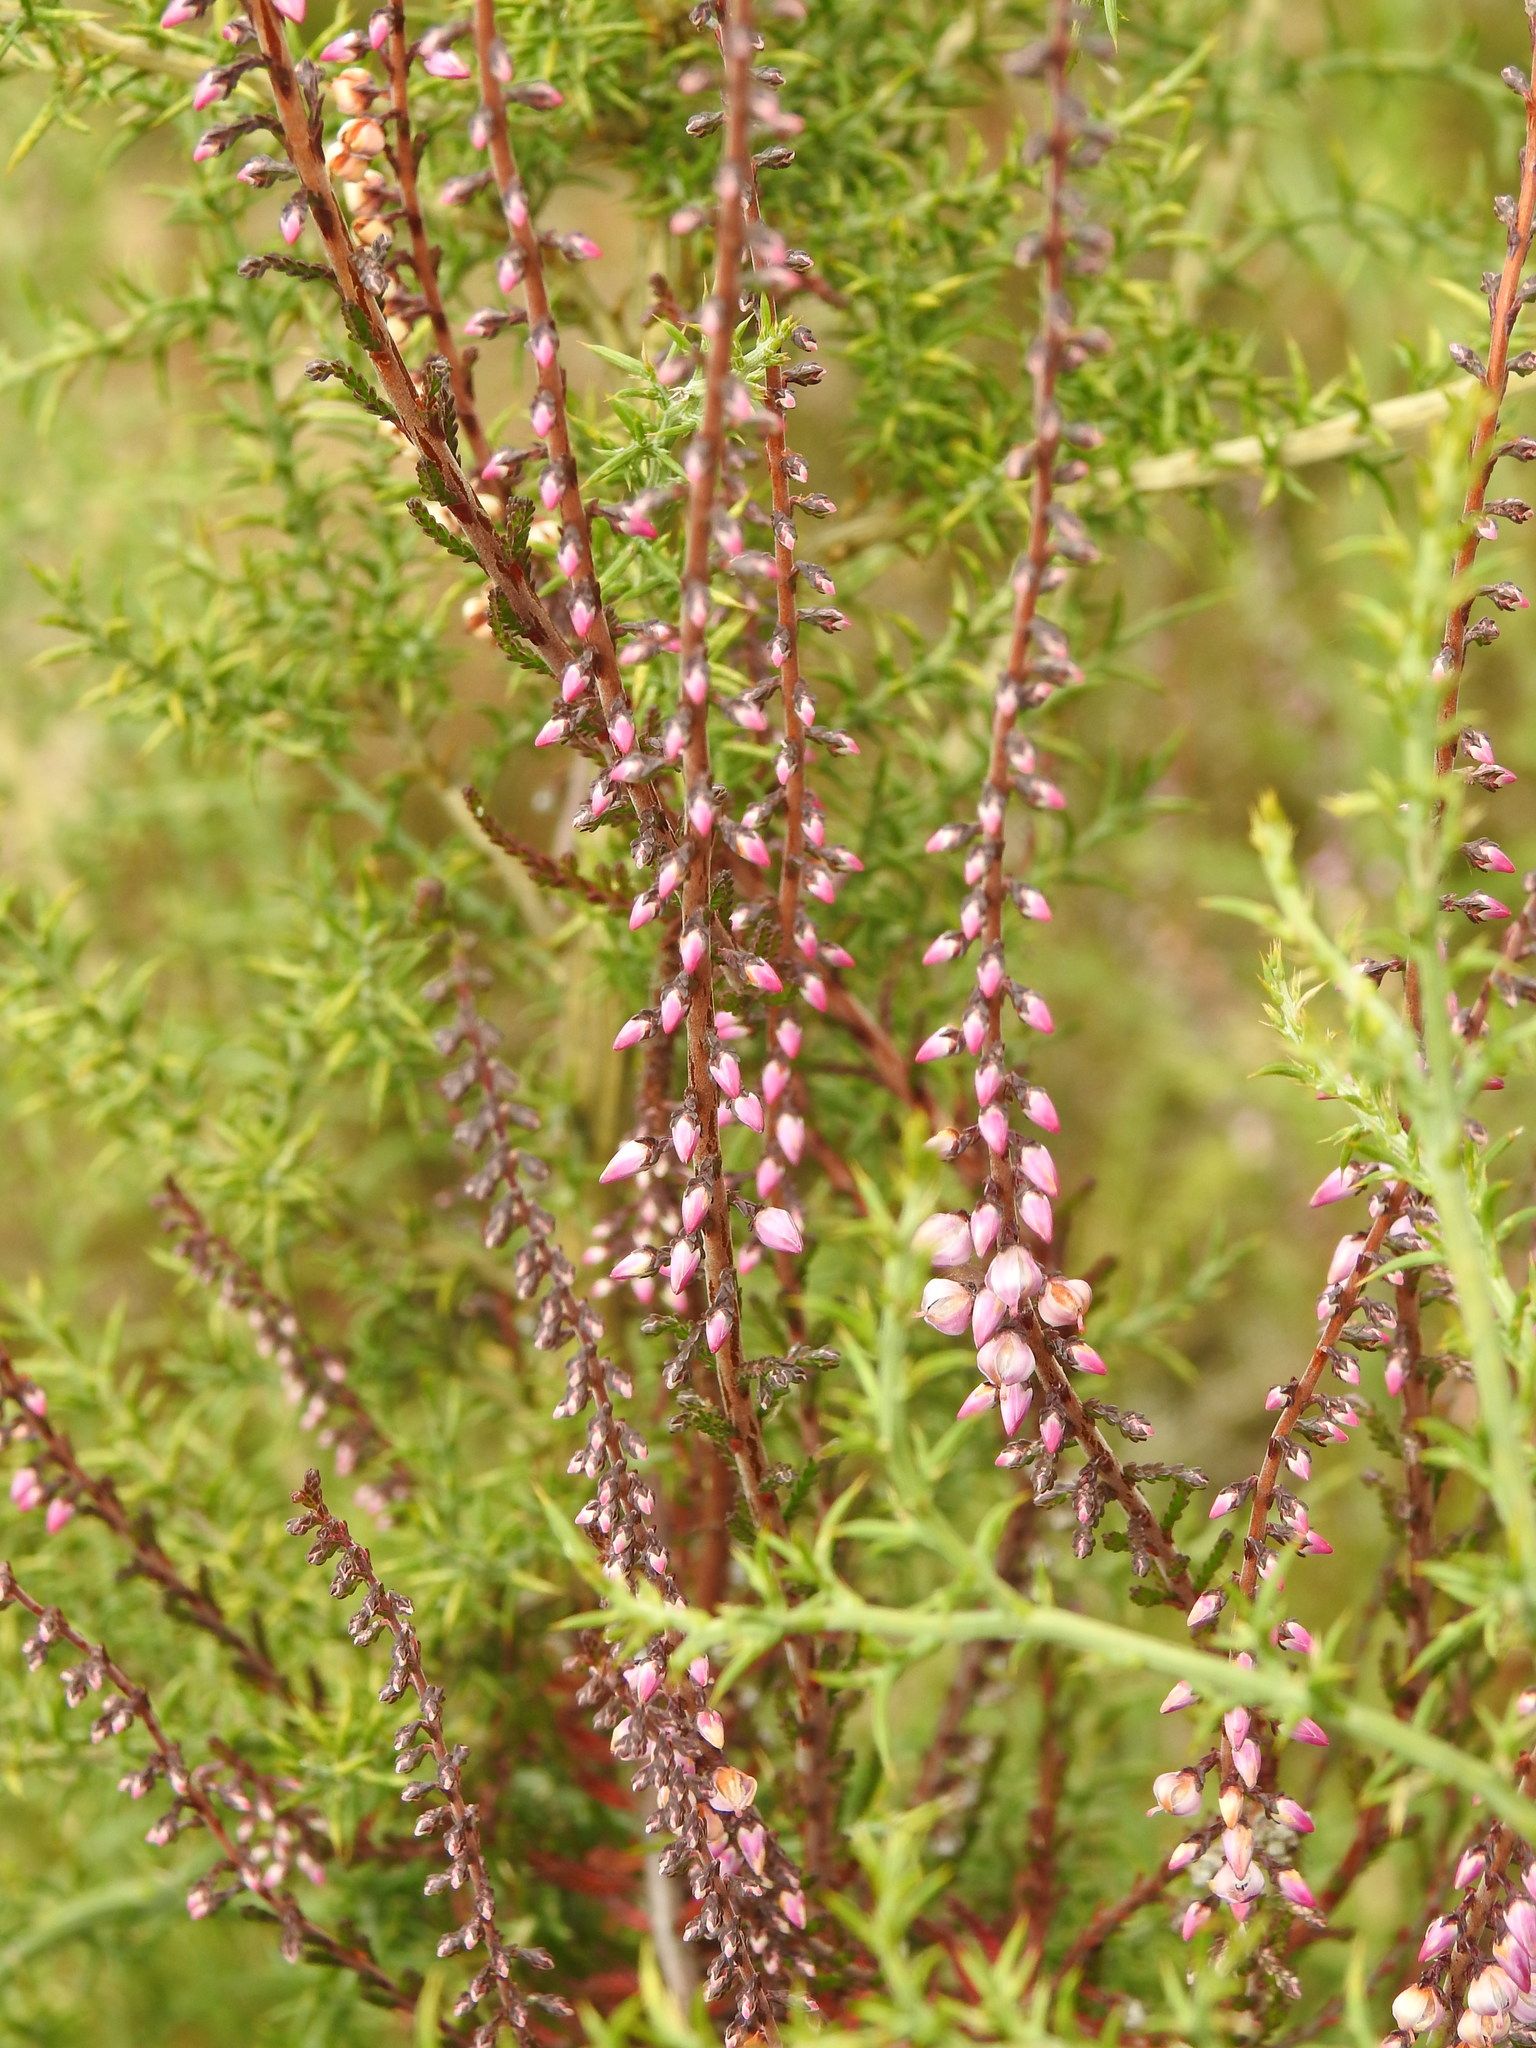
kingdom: Plantae
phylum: Tracheophyta
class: Magnoliopsida
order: Ericales
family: Ericaceae
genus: Calluna
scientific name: Calluna vulgaris
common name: Heather
